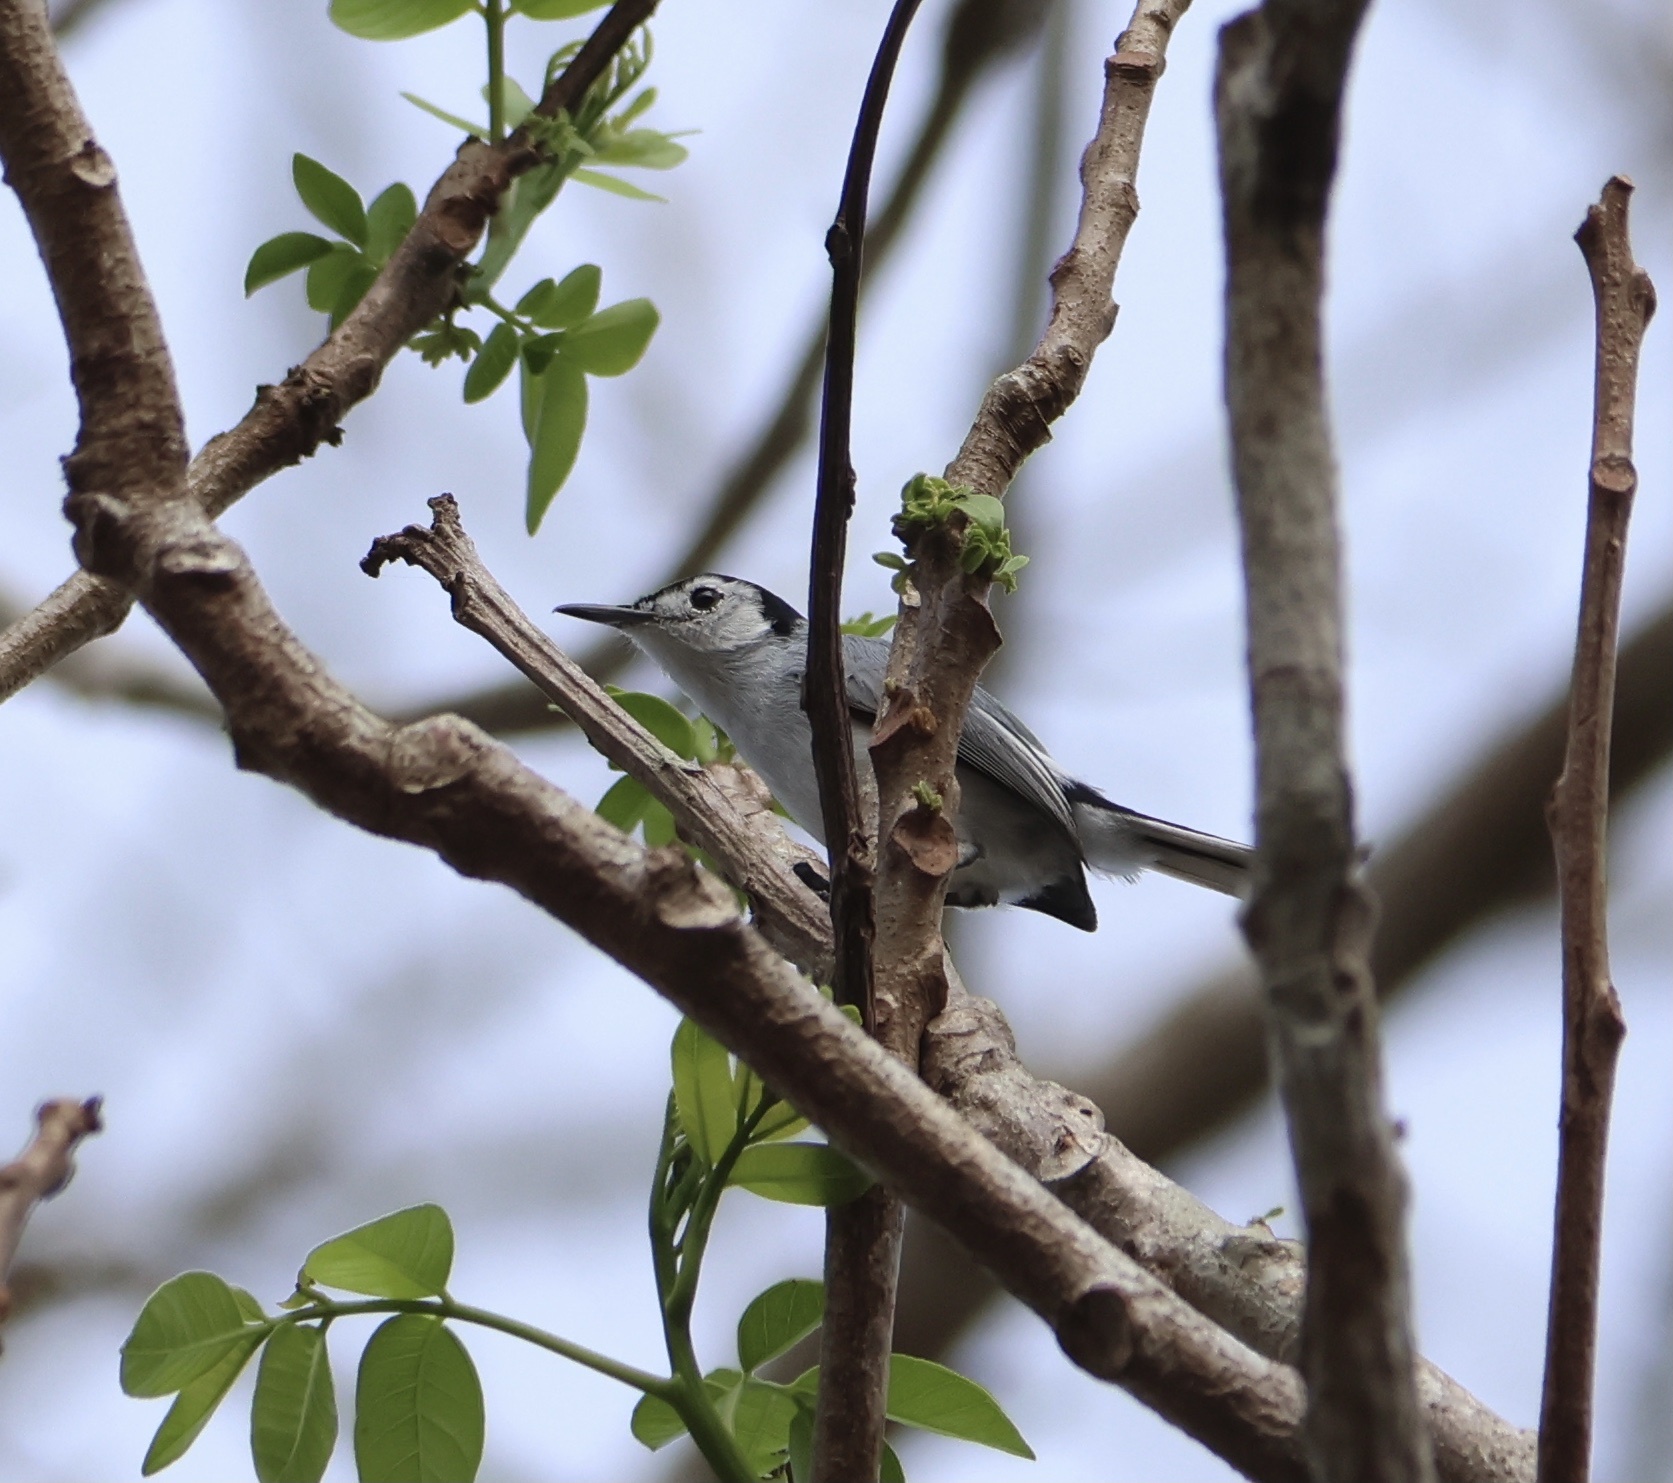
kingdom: Animalia
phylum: Chordata
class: Aves
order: Passeriformes
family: Polioptilidae
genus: Polioptila
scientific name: Polioptila plumbea
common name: Tropical gnatcatcher
